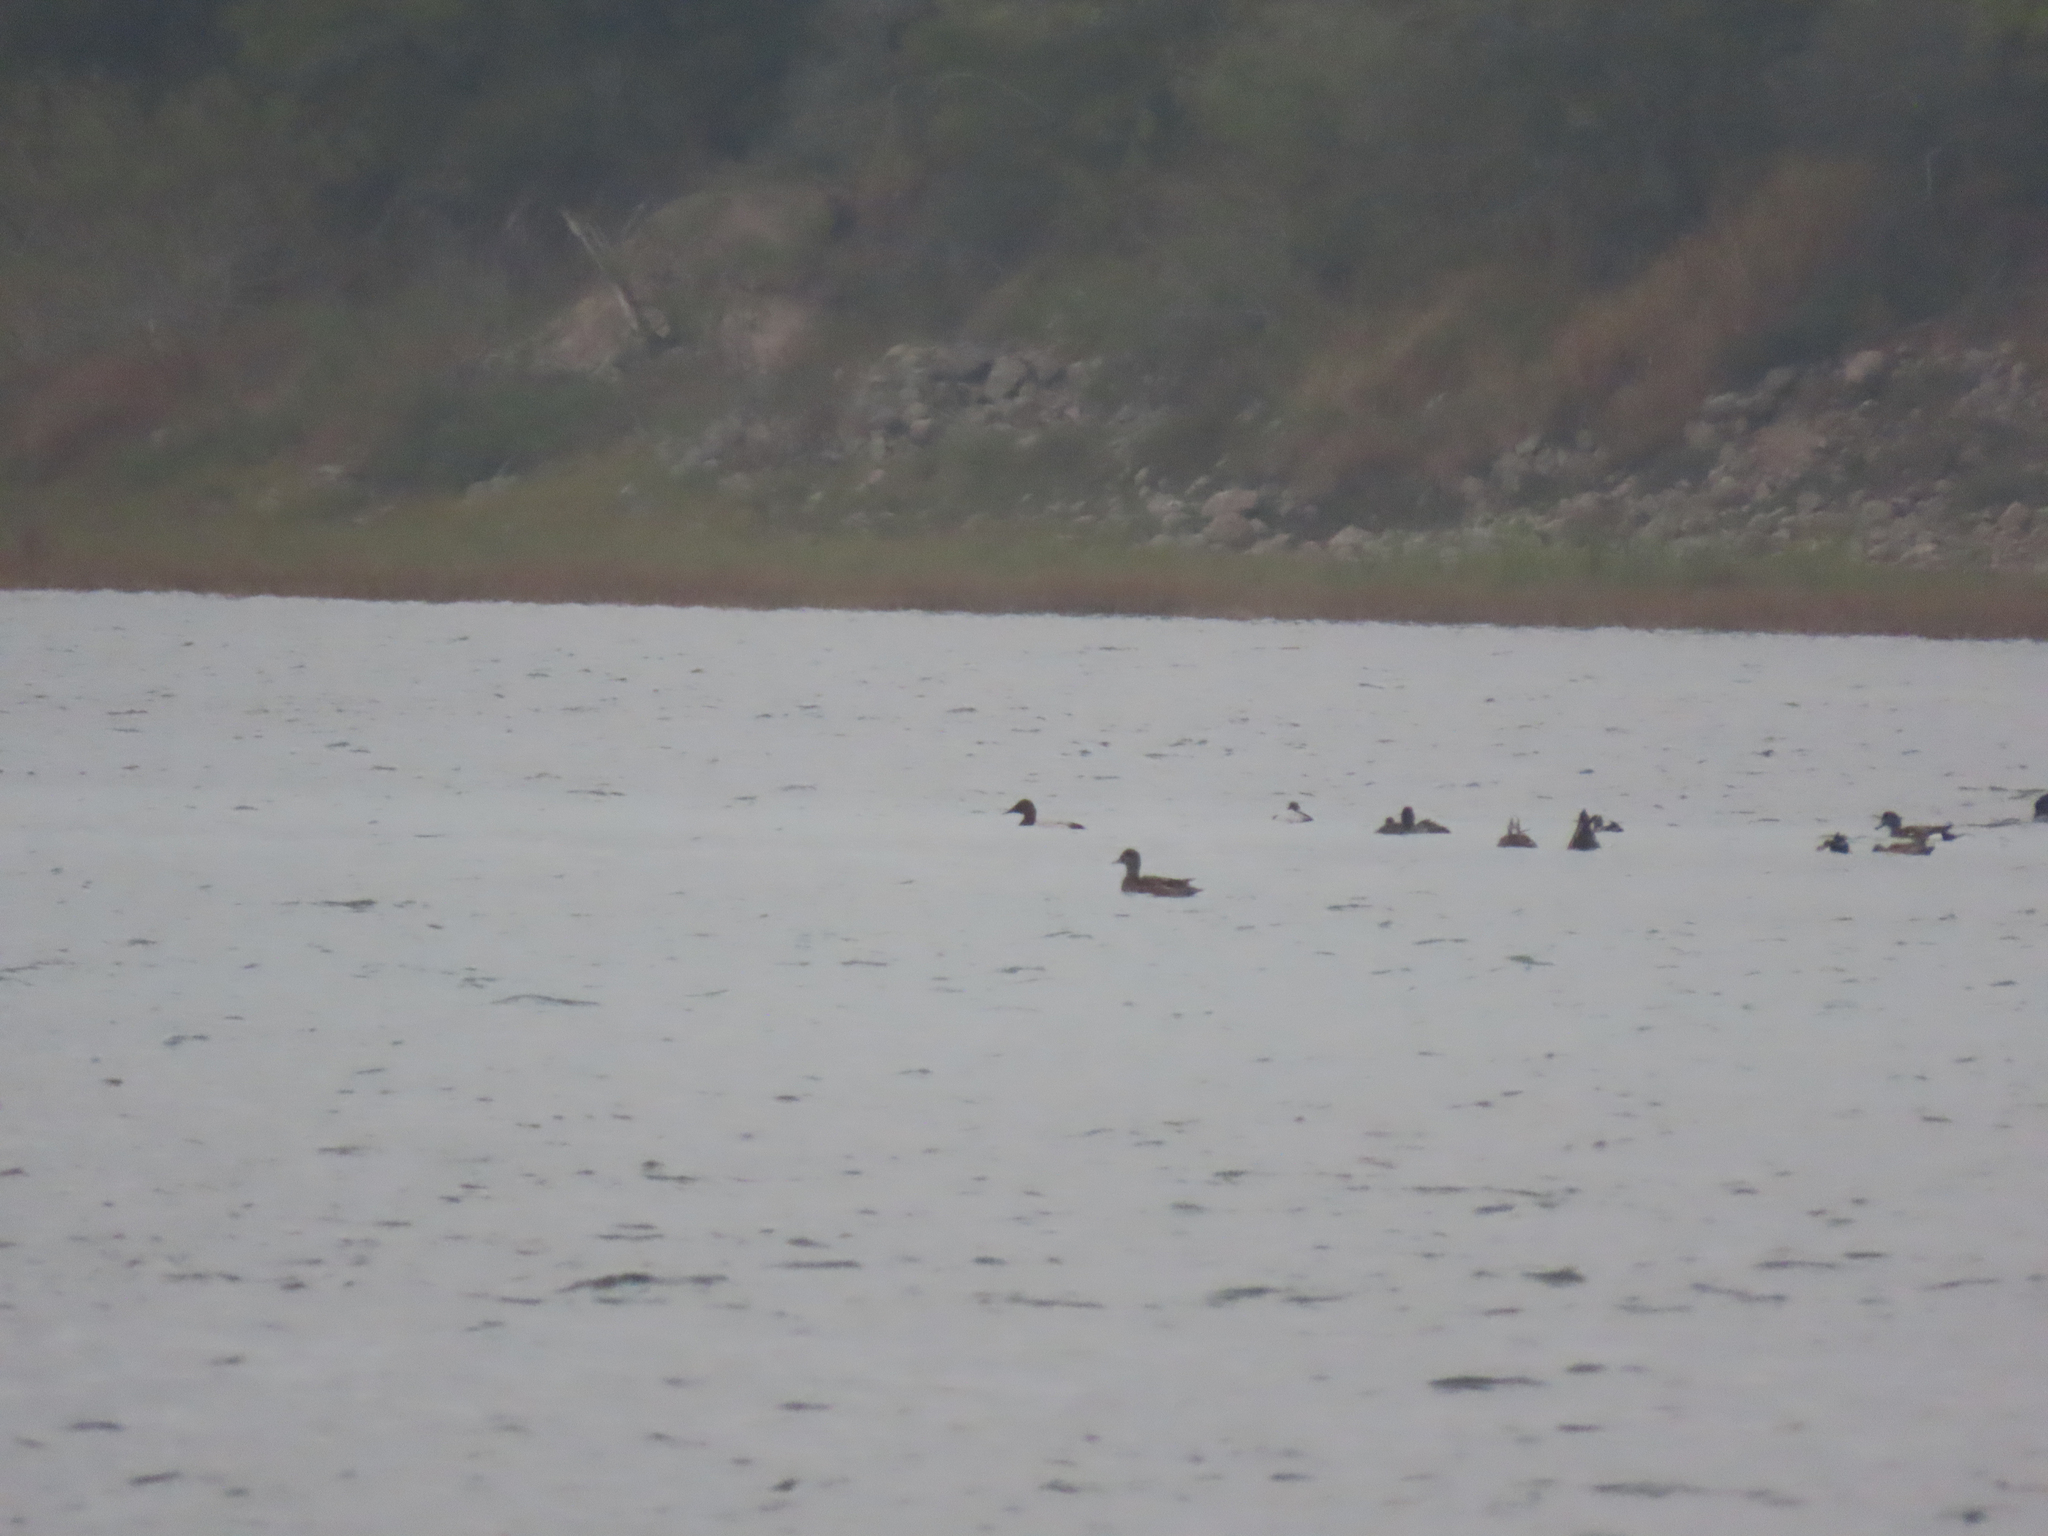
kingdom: Animalia
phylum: Chordata
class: Aves
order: Anseriformes
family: Anatidae
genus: Aythya
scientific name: Aythya valisineria
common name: Canvasback
